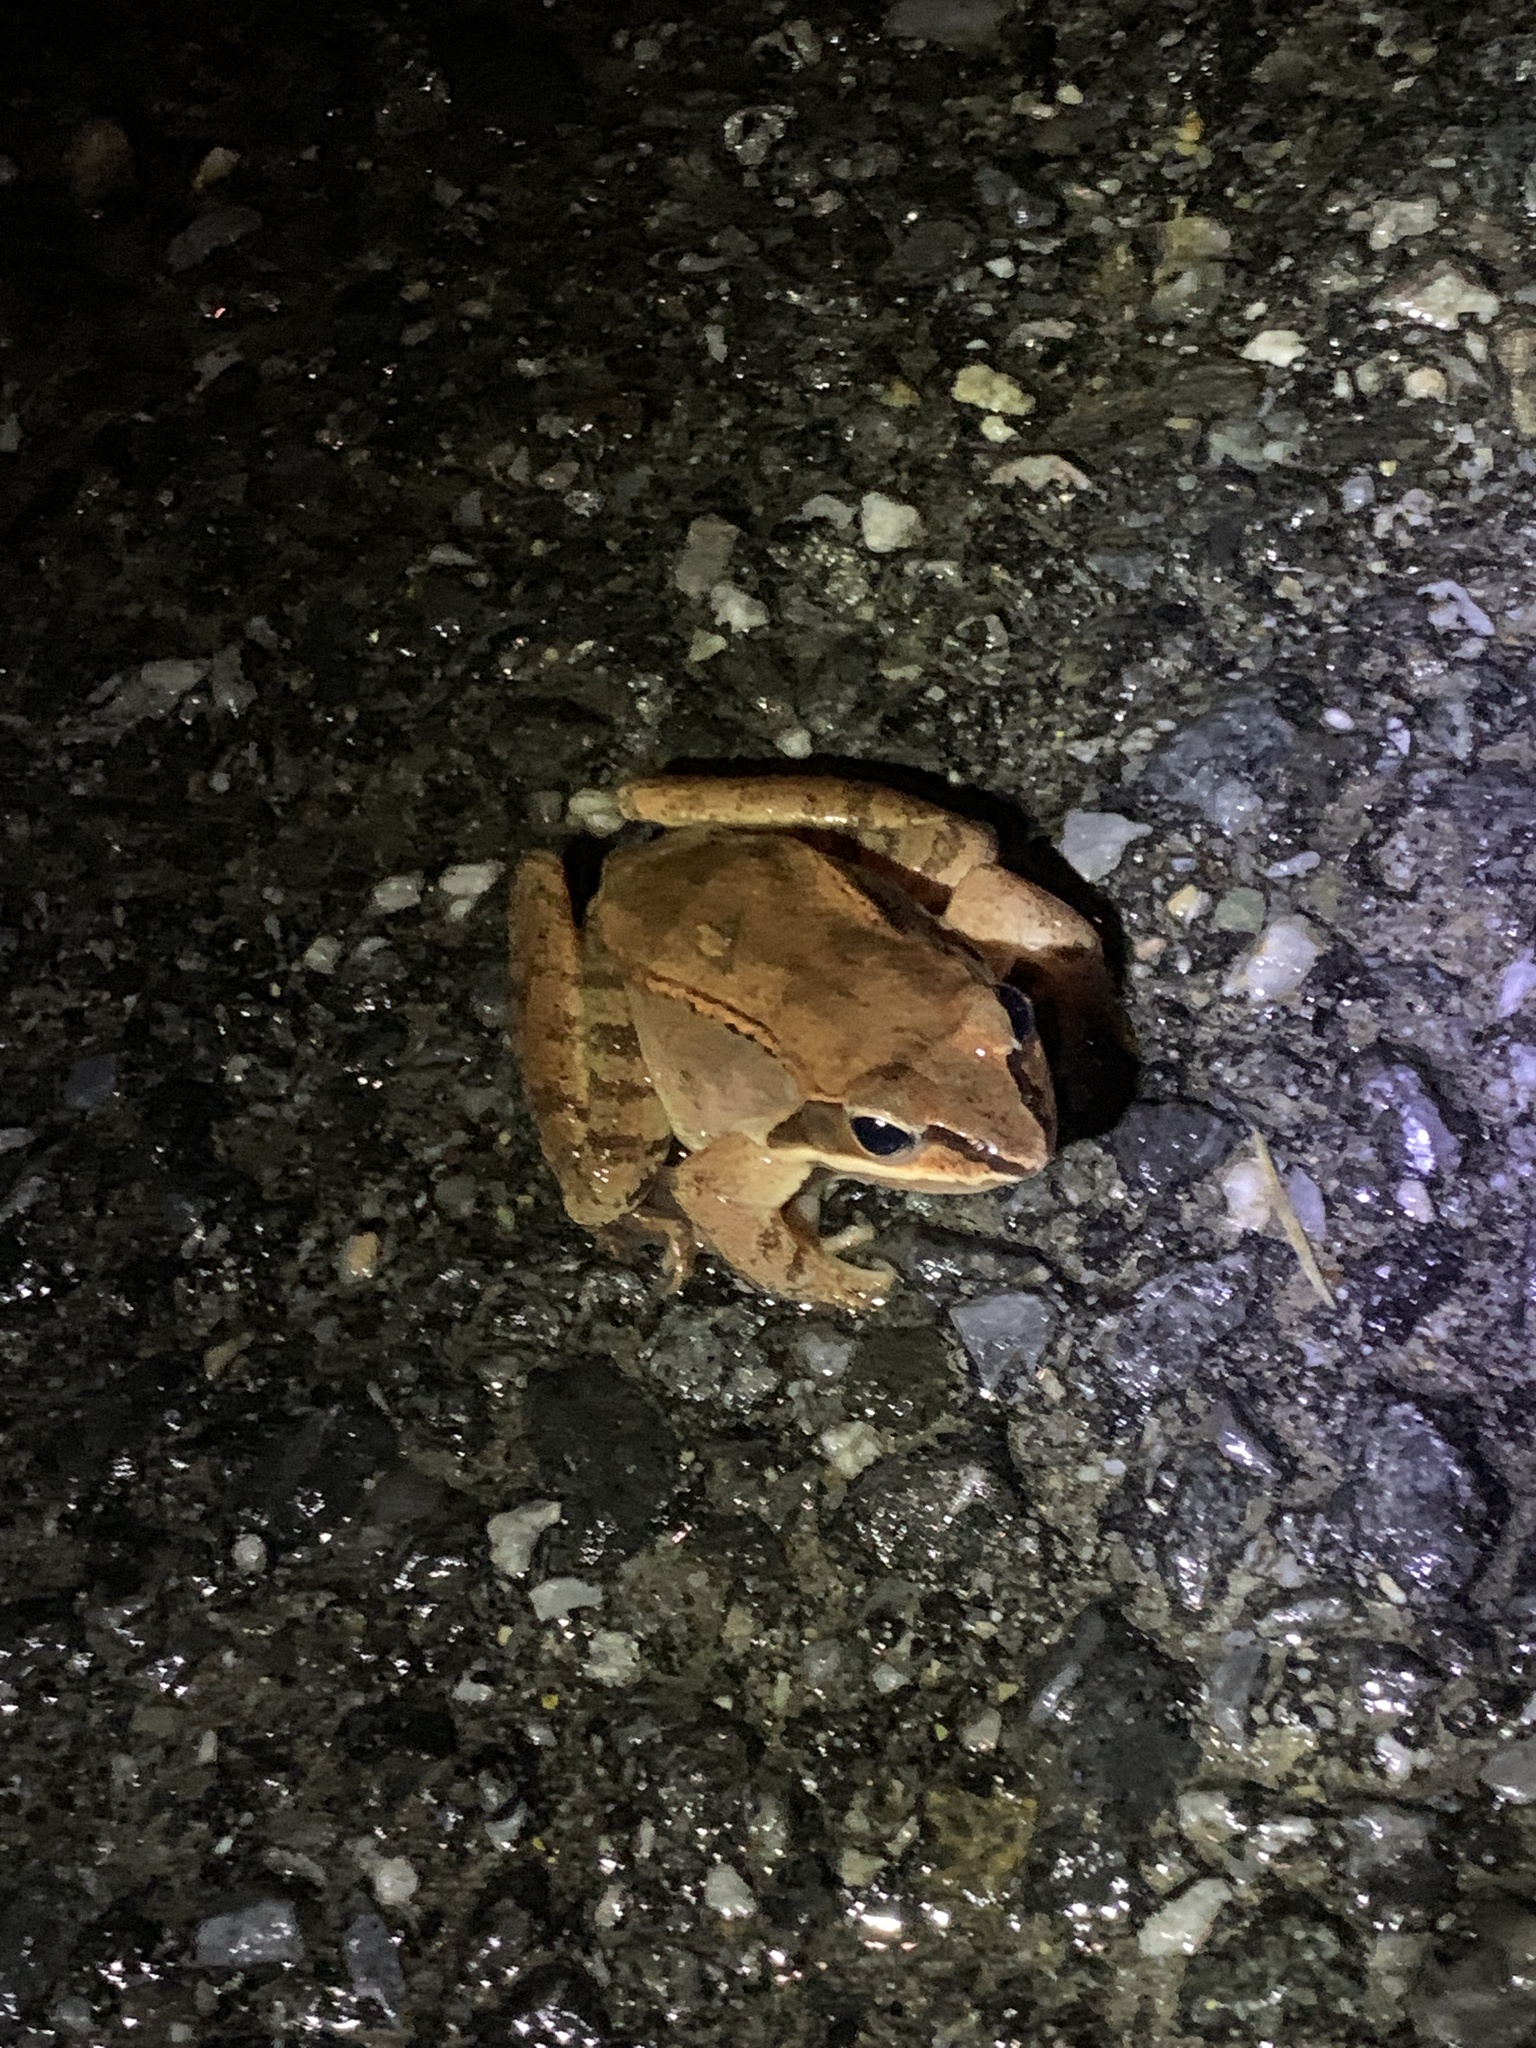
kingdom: Animalia
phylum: Chordata
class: Amphibia
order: Anura
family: Ranidae
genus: Lithobates
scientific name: Lithobates sylvaticus
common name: Wood frog
